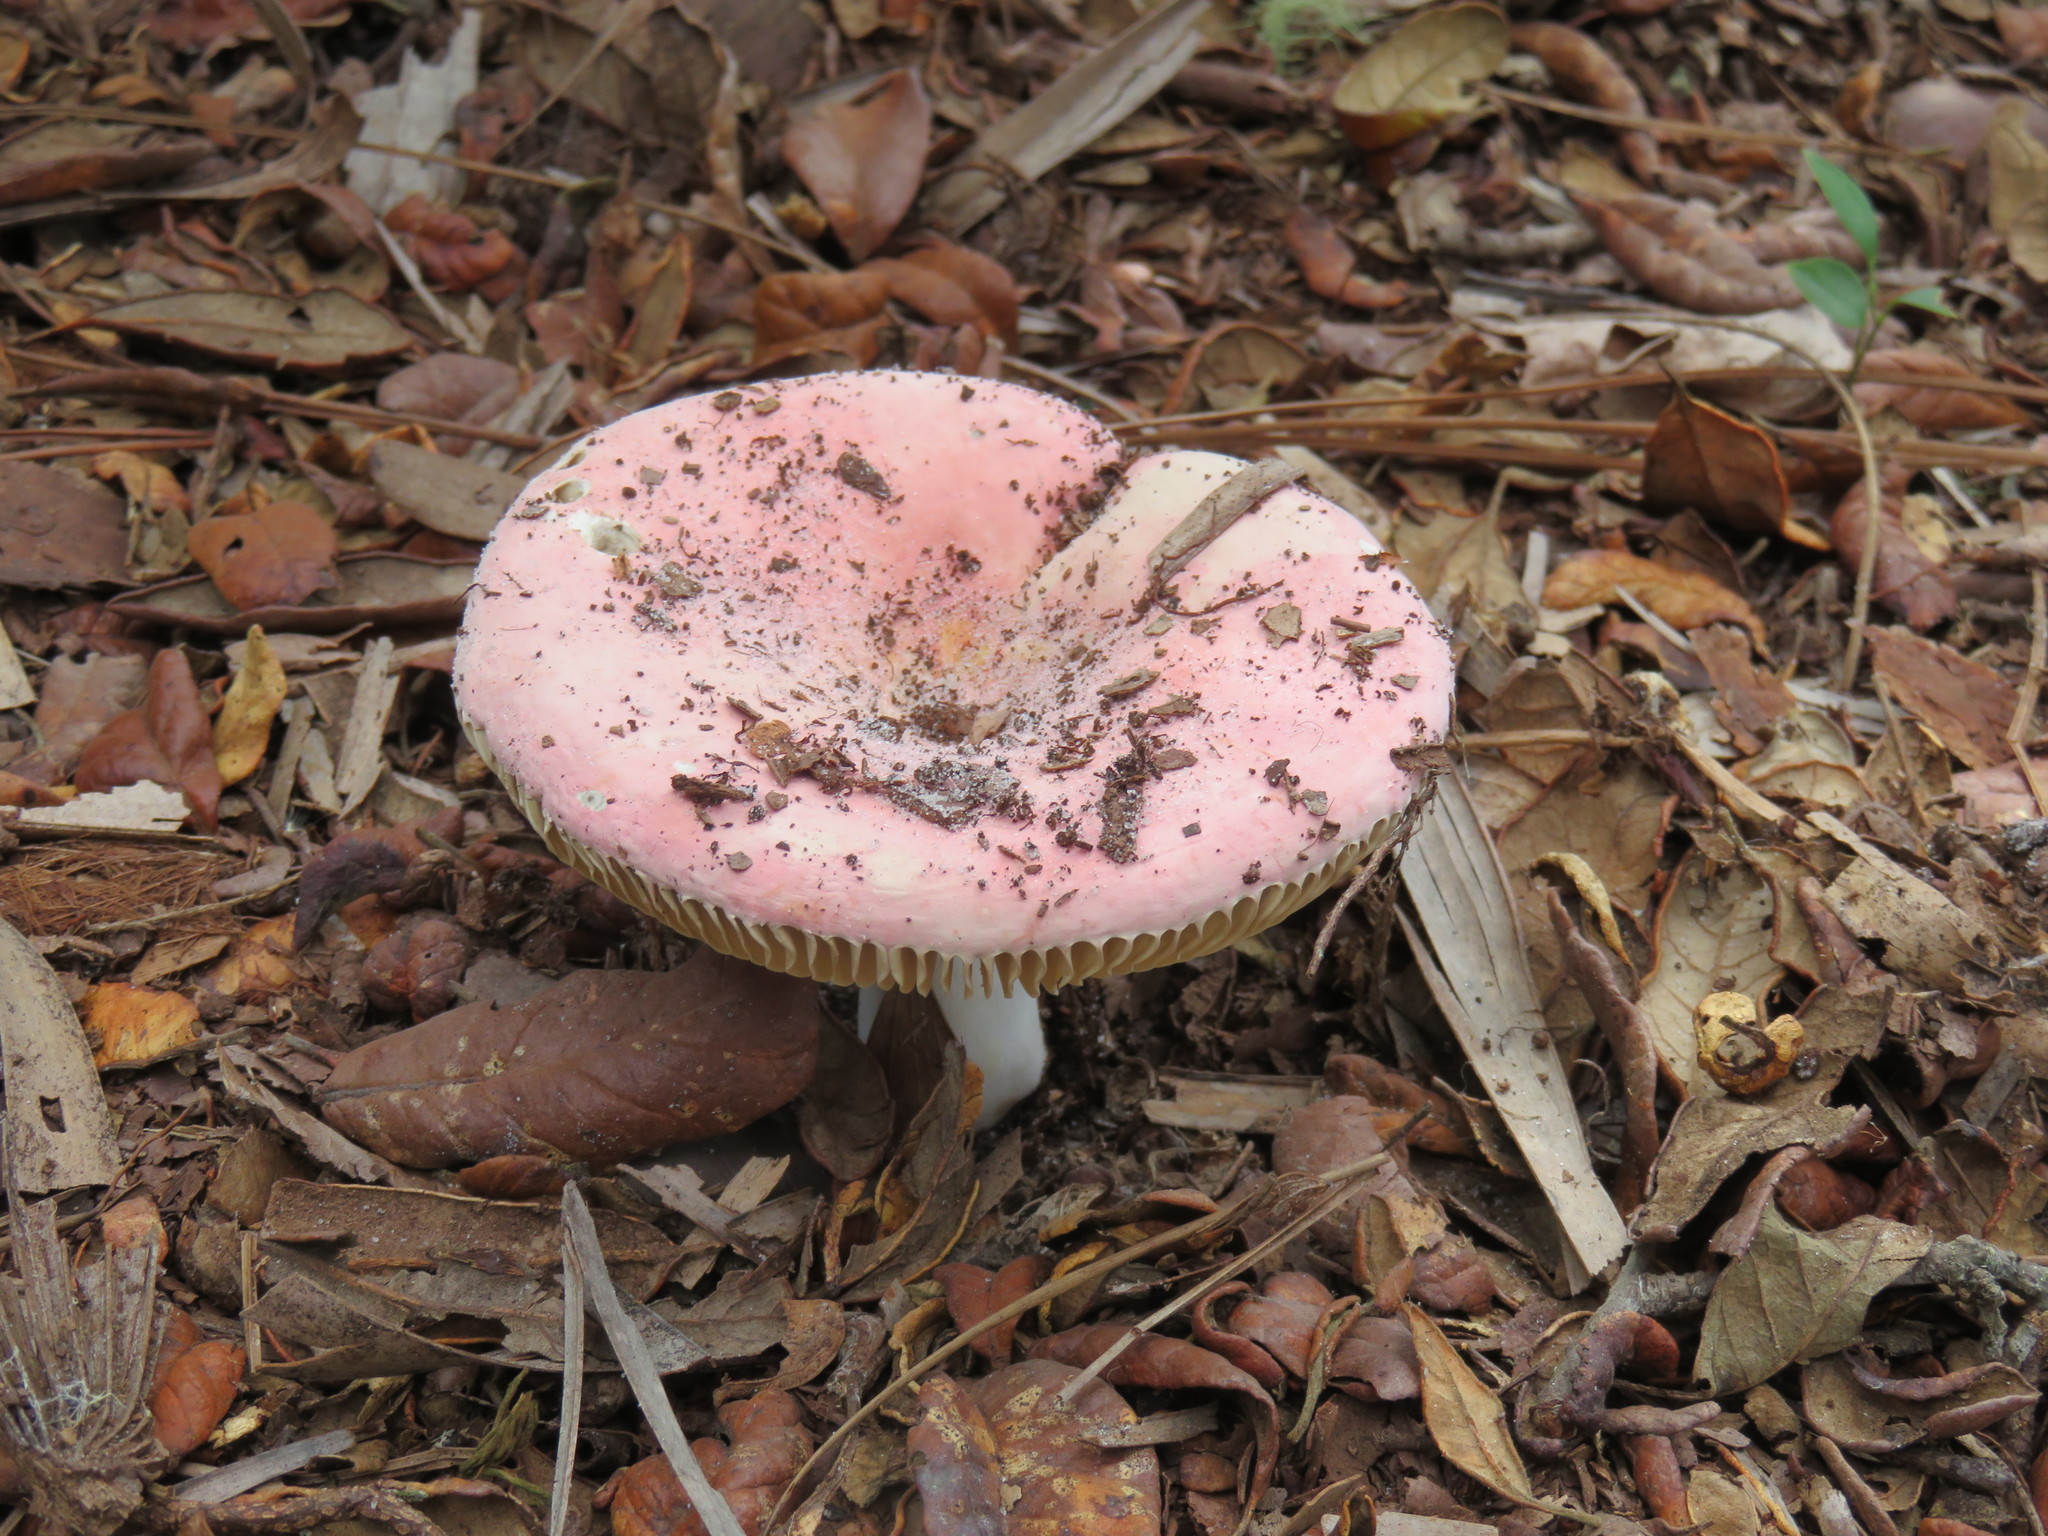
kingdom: Fungi
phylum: Basidiomycota
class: Agaricomycetes
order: Russulales
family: Russulaceae
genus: Russula
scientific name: Russula hixsonii
